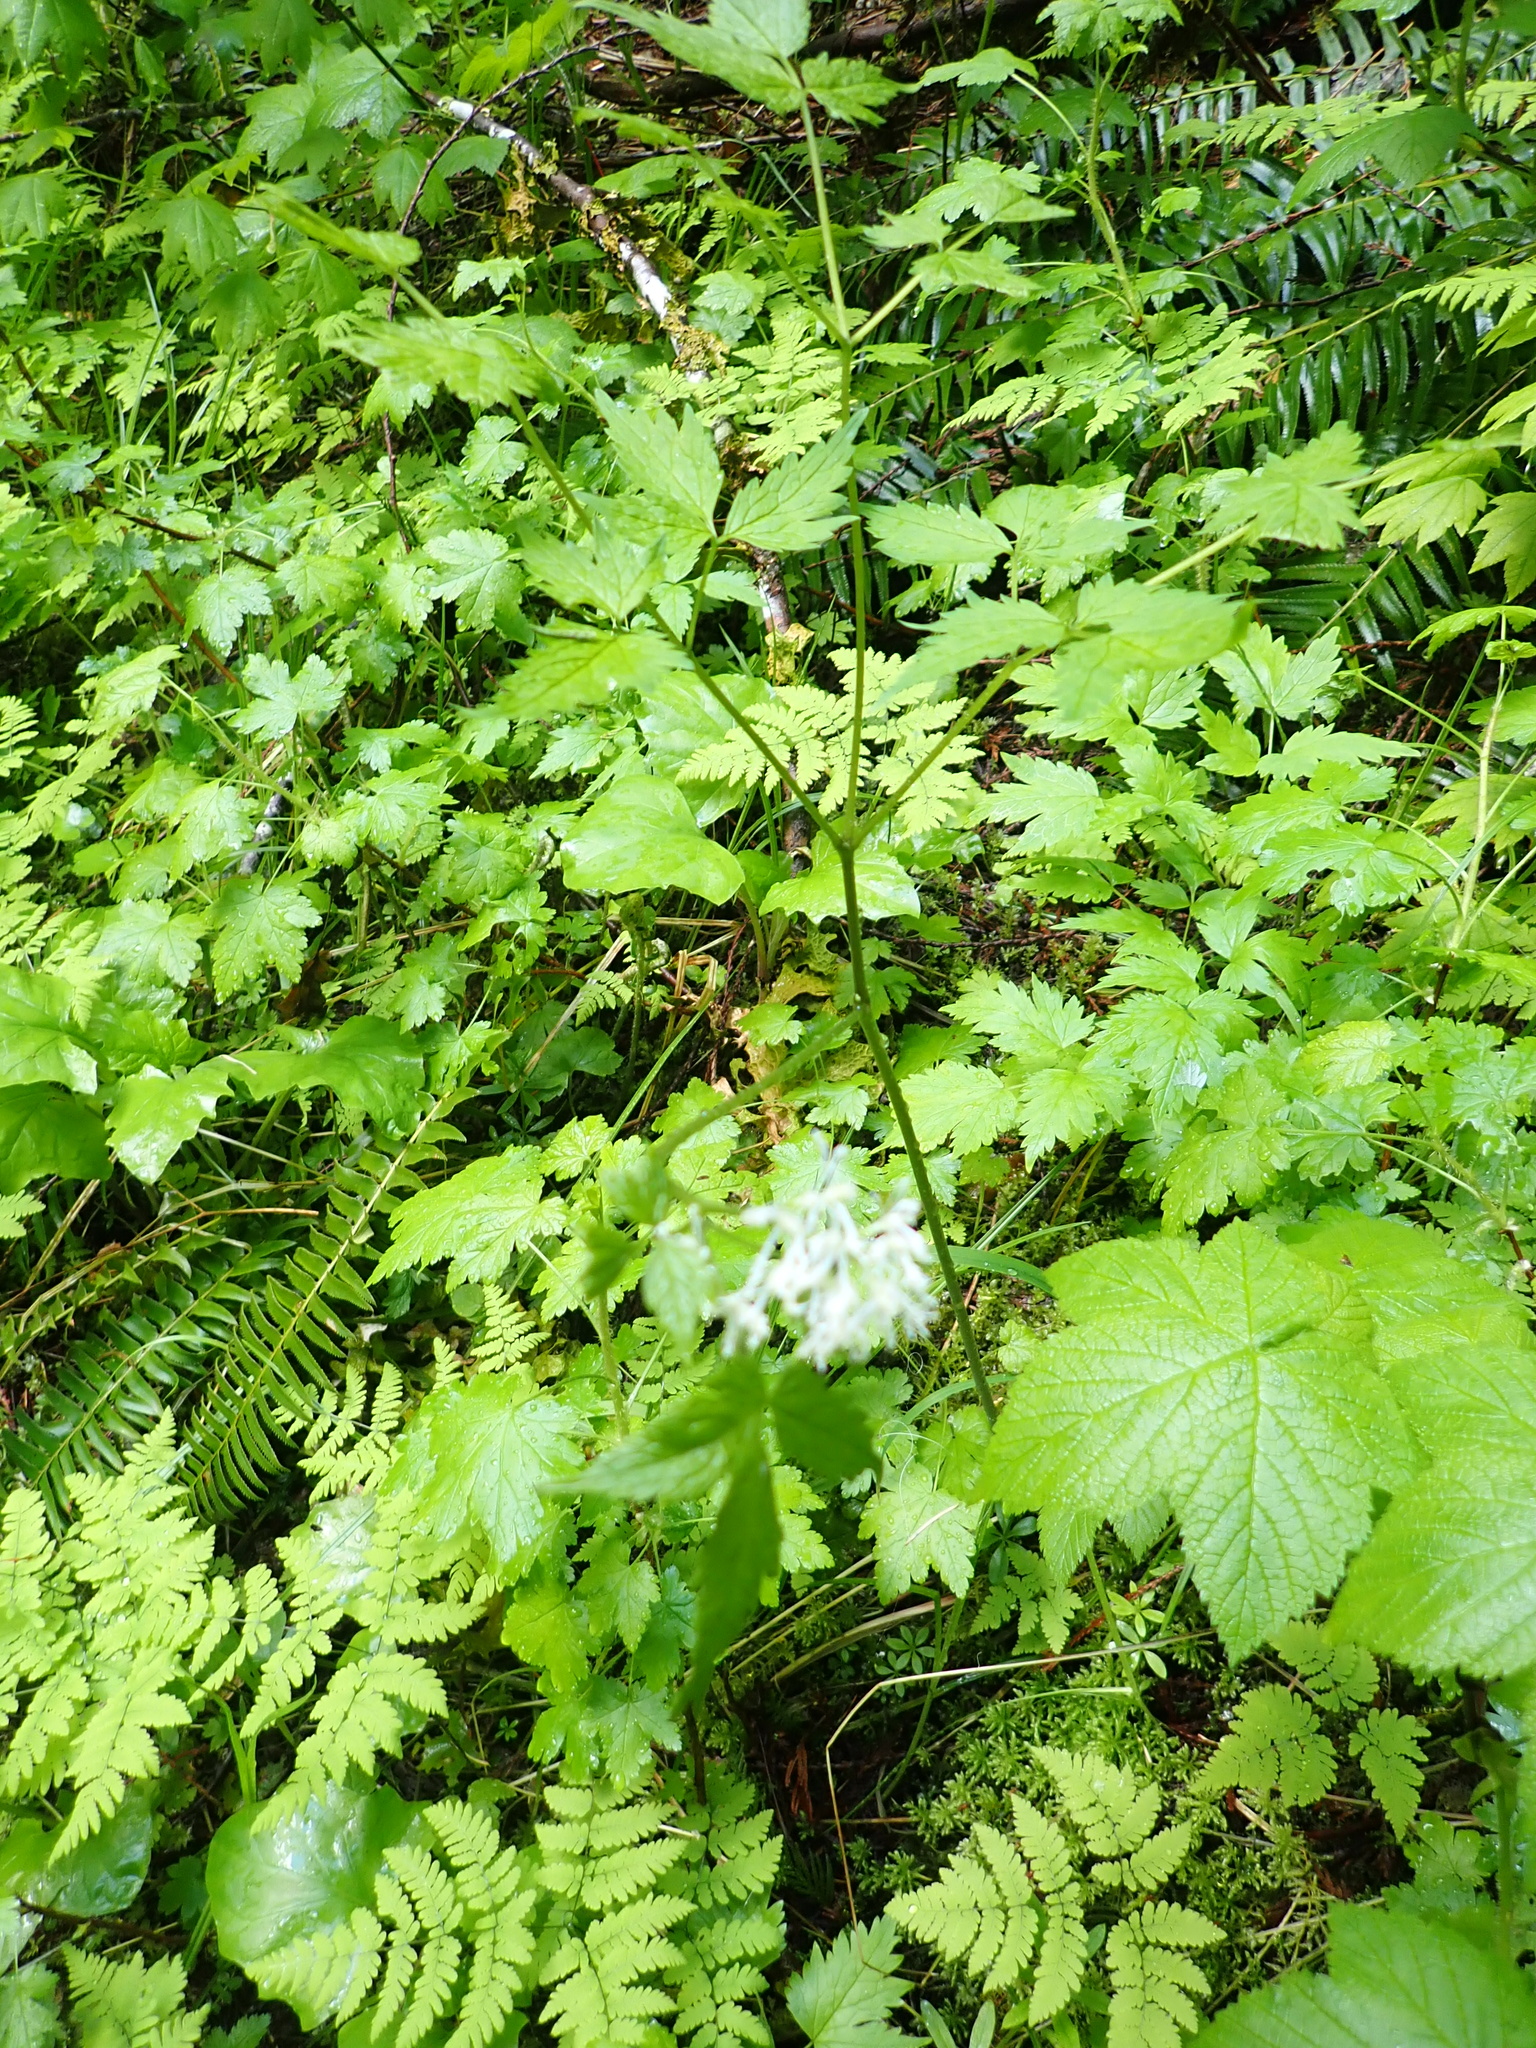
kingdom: Plantae
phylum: Tracheophyta
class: Magnoliopsida
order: Ranunculales
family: Ranunculaceae
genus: Actaea
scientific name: Actaea rubra
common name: Red baneberry
